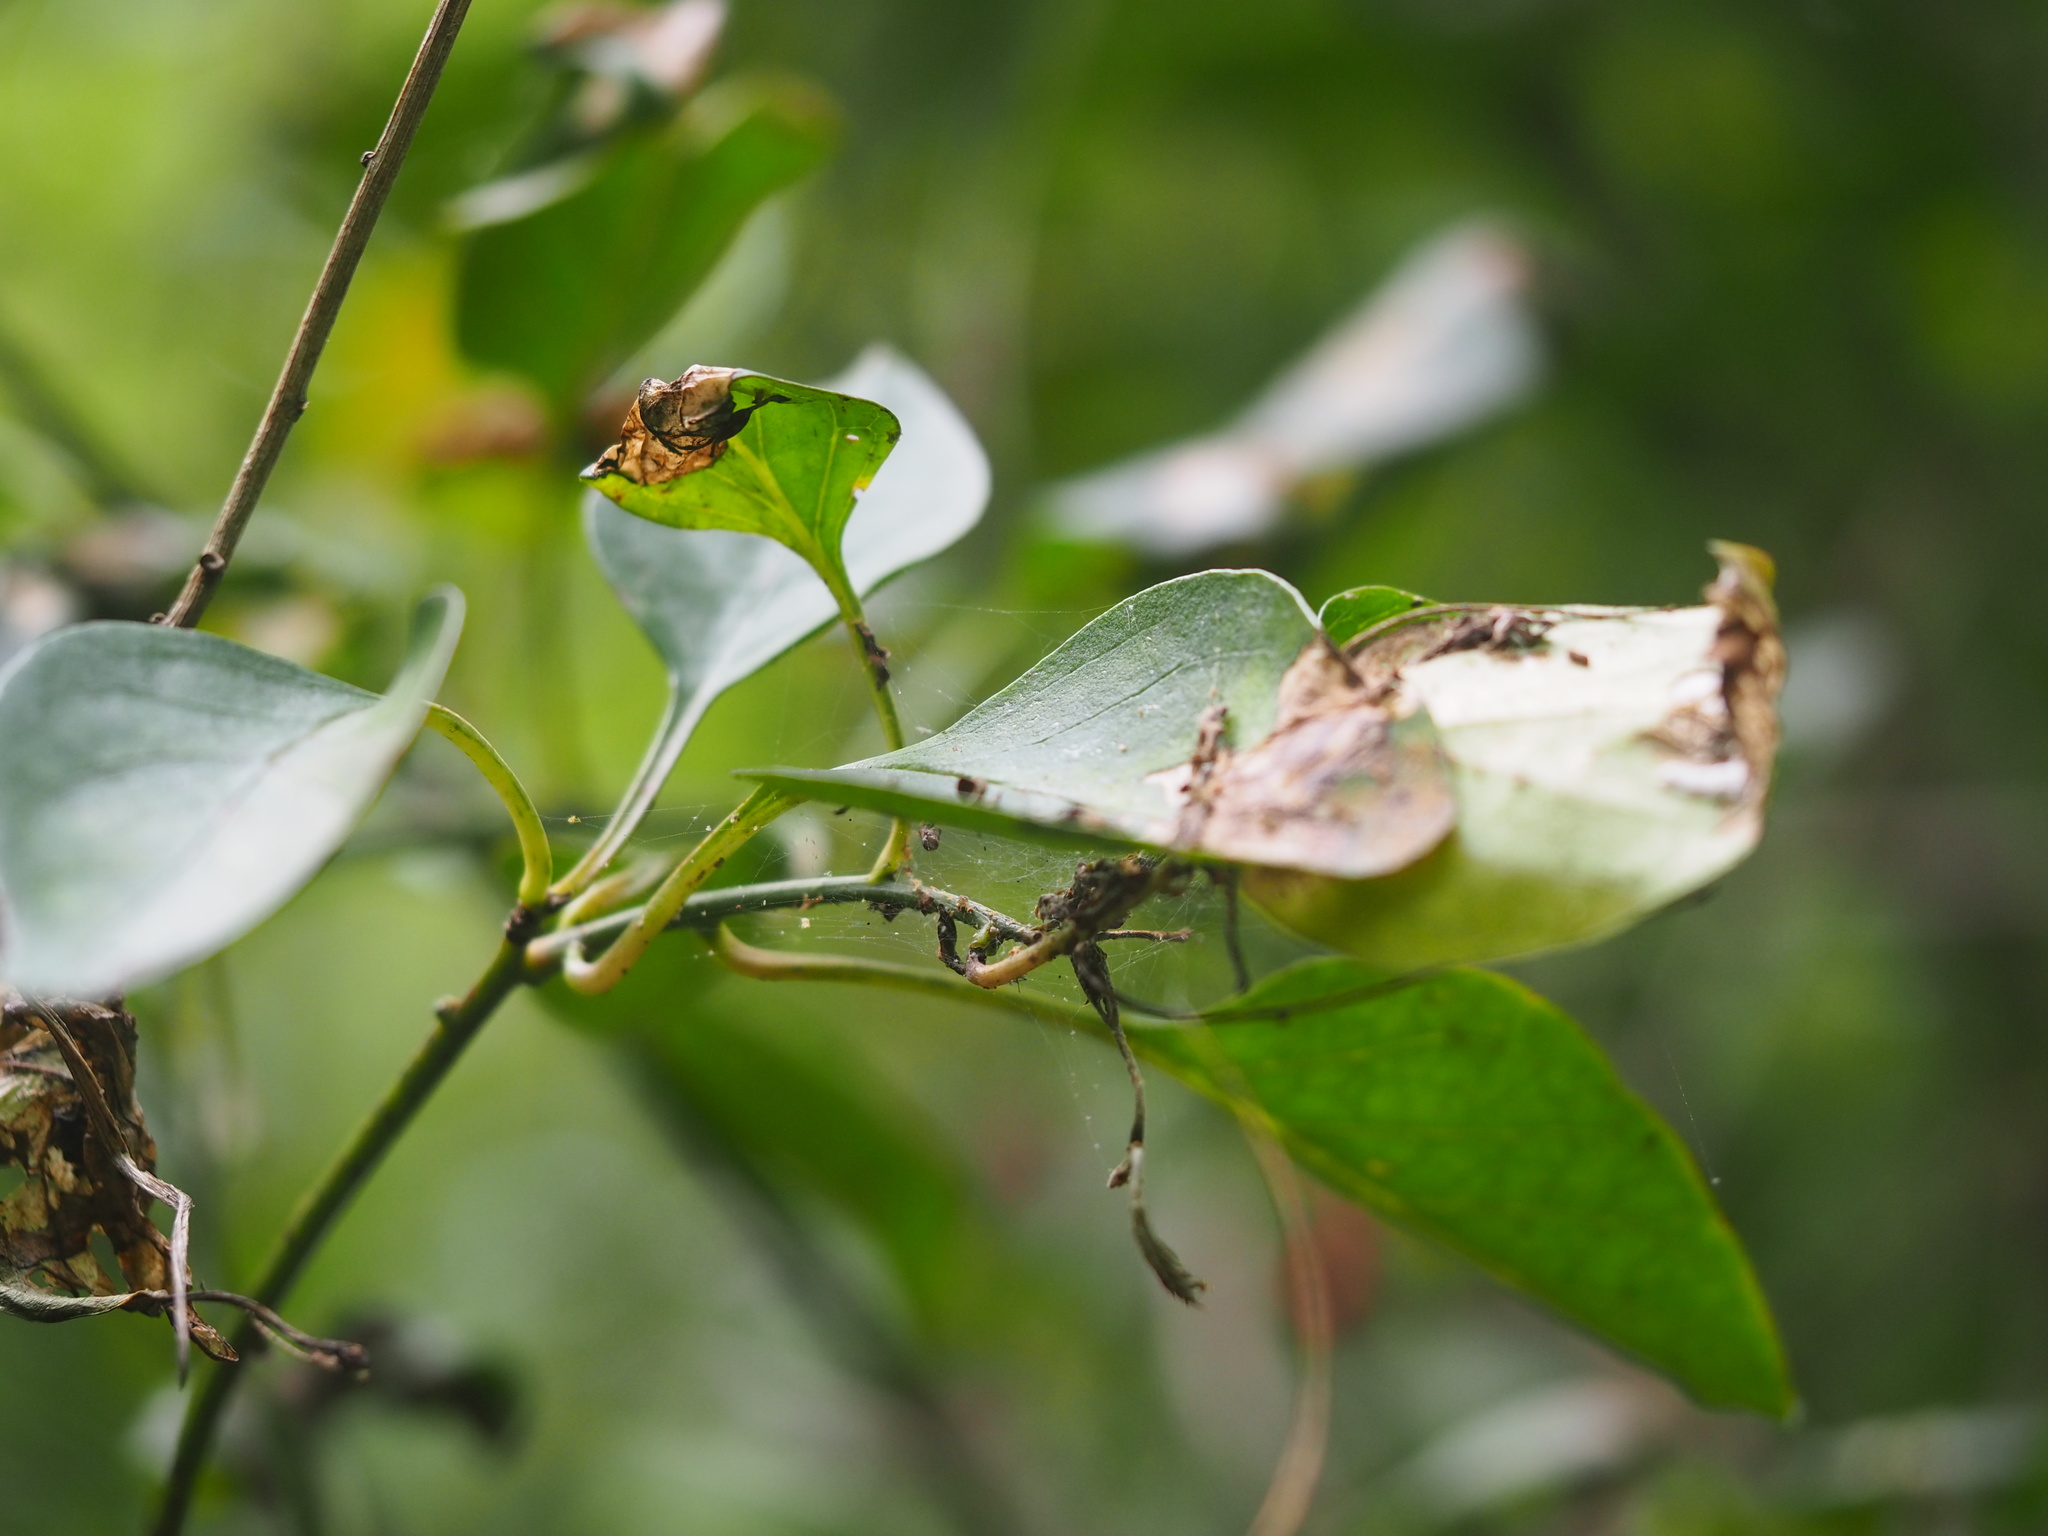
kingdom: Plantae
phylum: Tracheophyta
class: Magnoliopsida
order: Caryophyllales
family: Amaranthaceae
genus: Deeringia
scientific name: Deeringia amaranthoides
